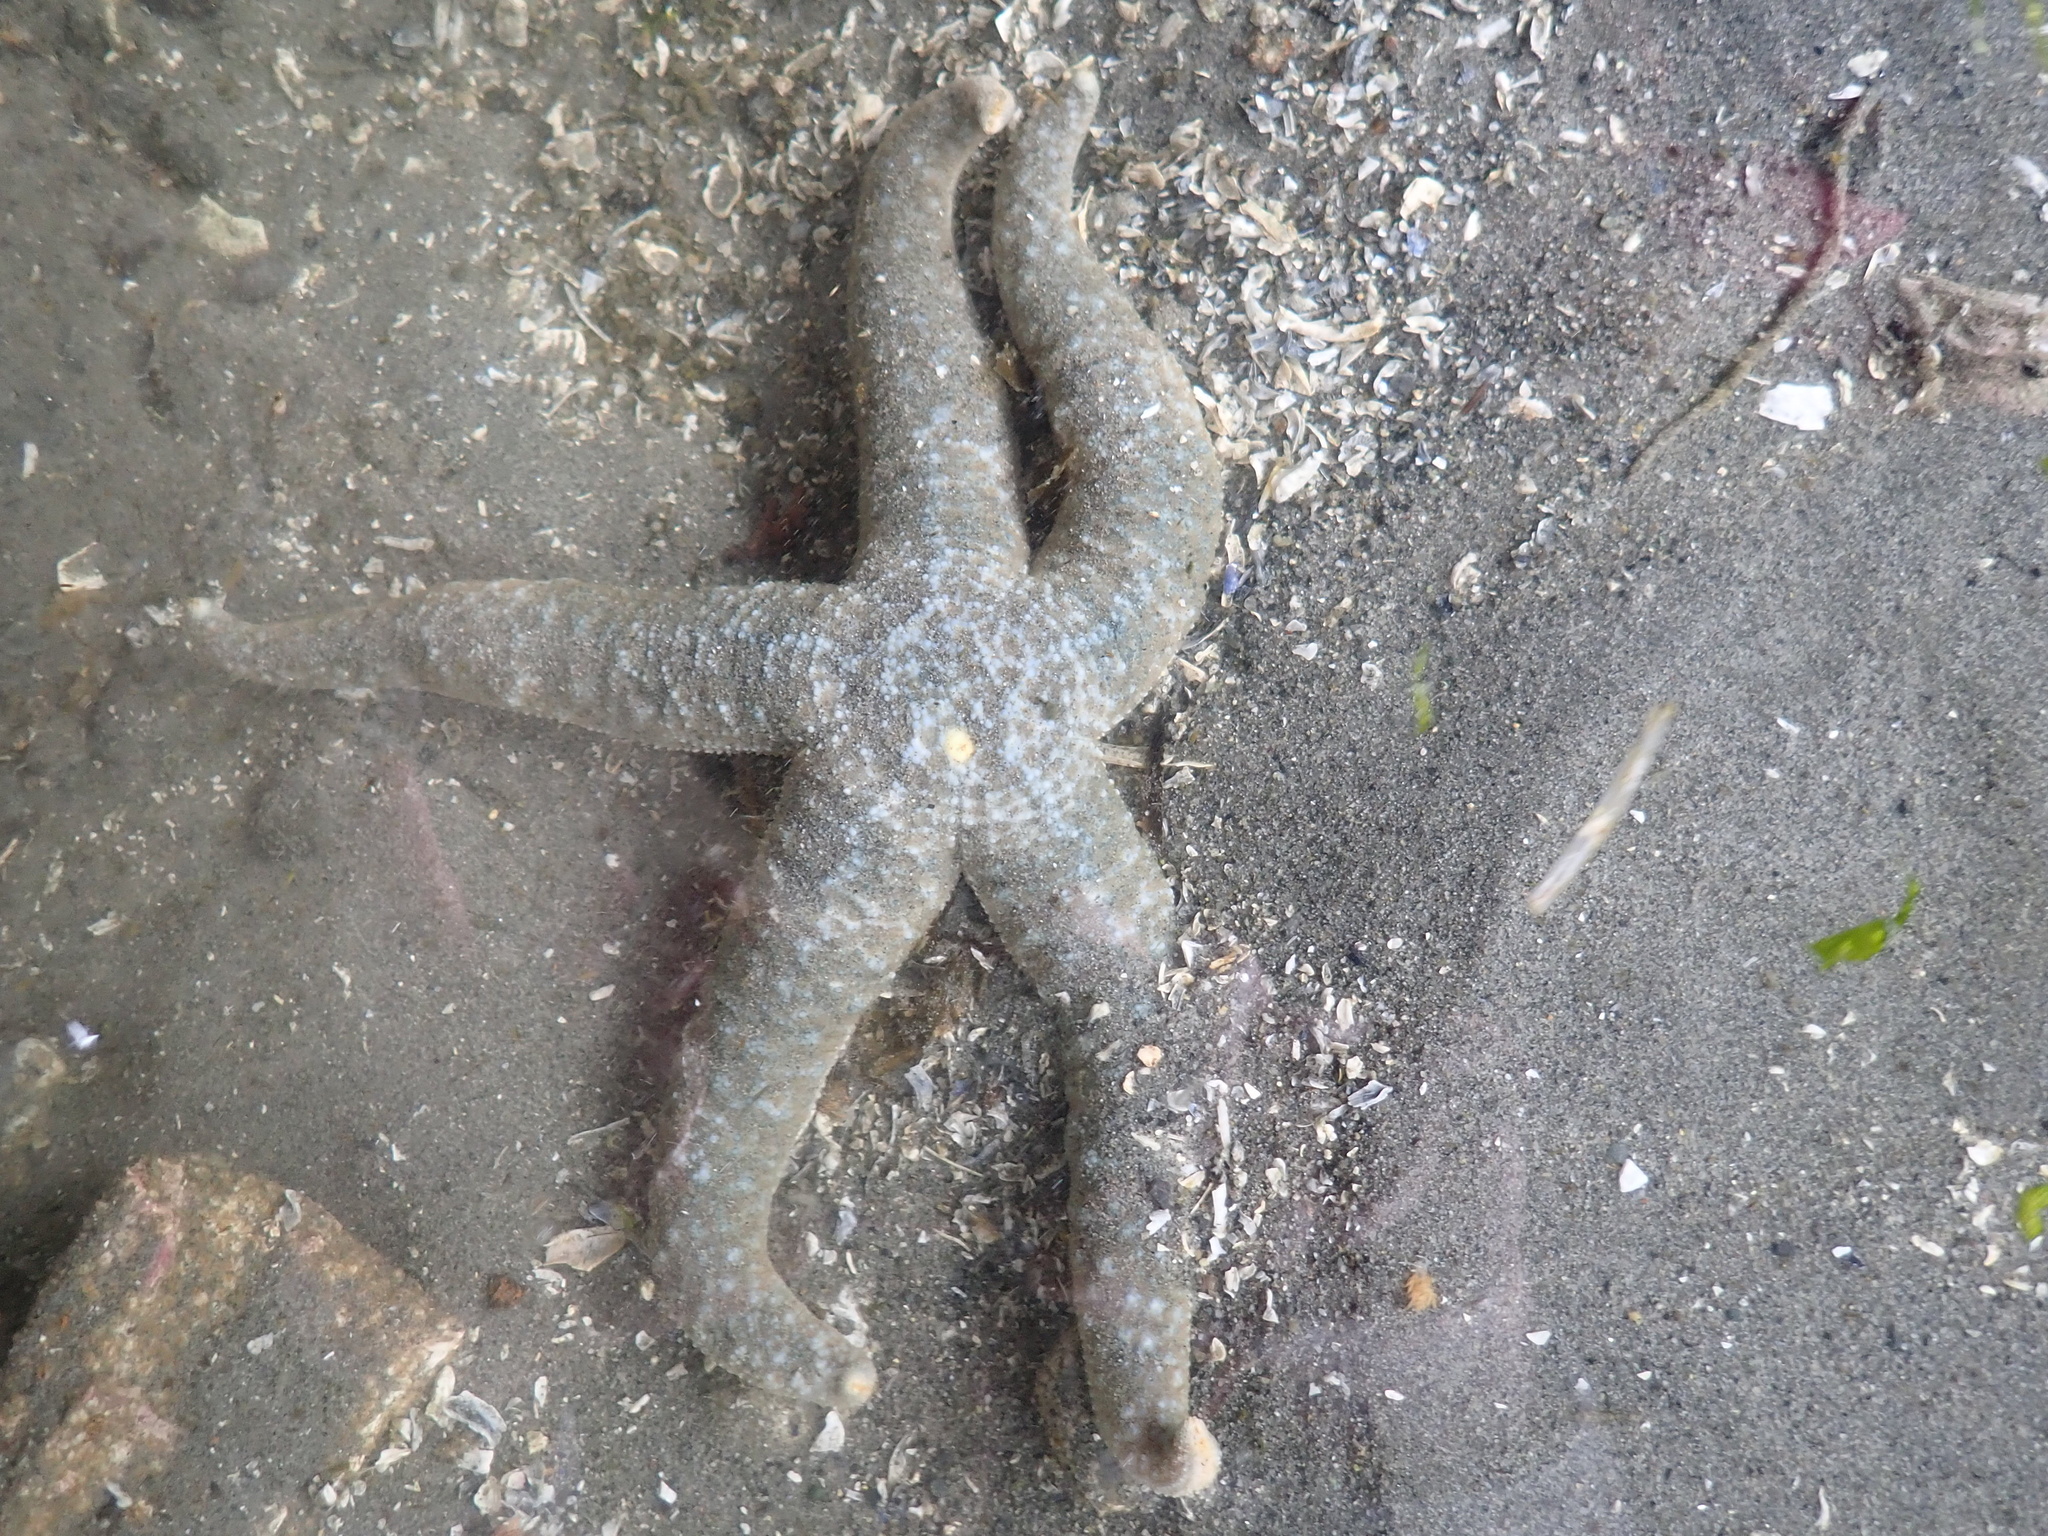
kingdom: Animalia
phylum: Echinodermata
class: Asteroidea
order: Forcipulatida
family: Asteriidae
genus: Evasterias
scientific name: Evasterias troschelii
